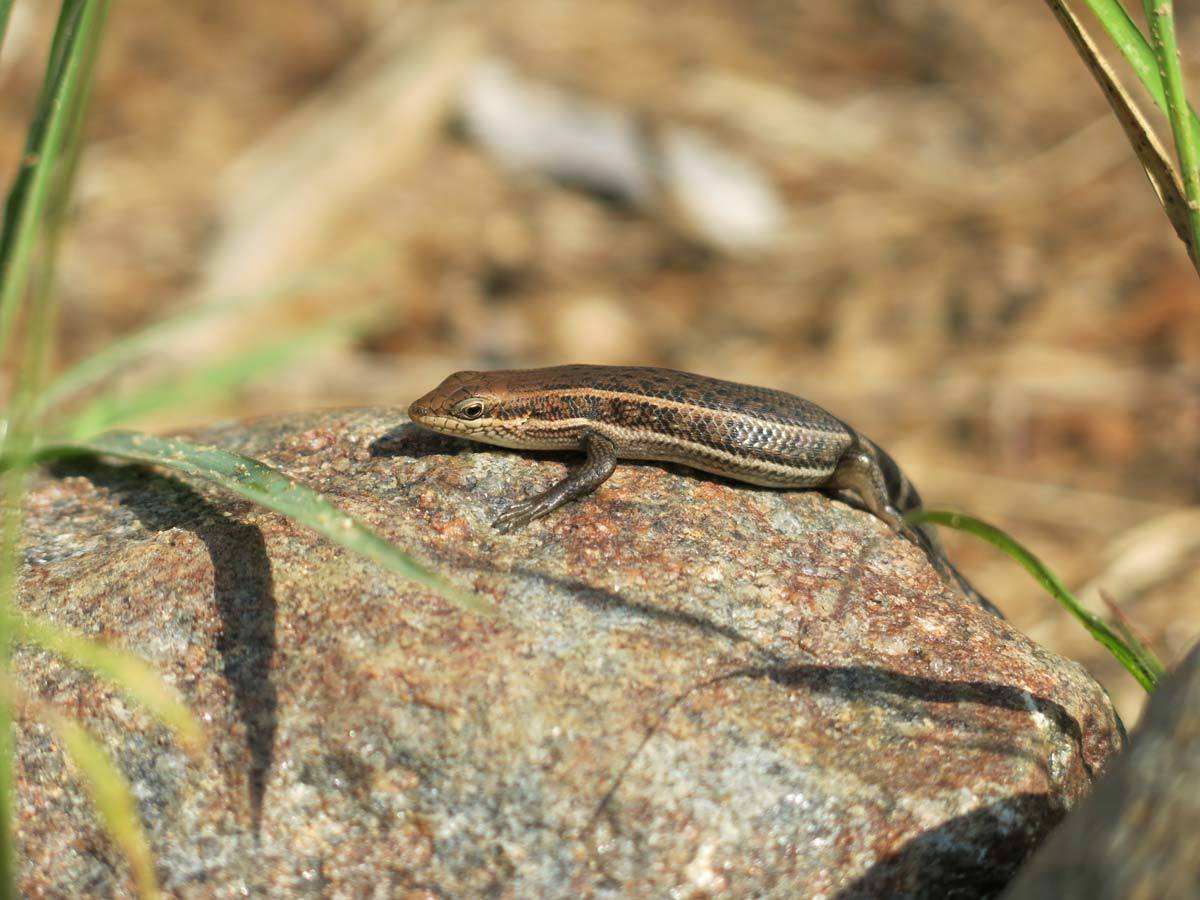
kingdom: Animalia
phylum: Chordata
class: Squamata
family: Scincidae
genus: Trachylepis
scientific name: Trachylepis damarana
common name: Damara skink
